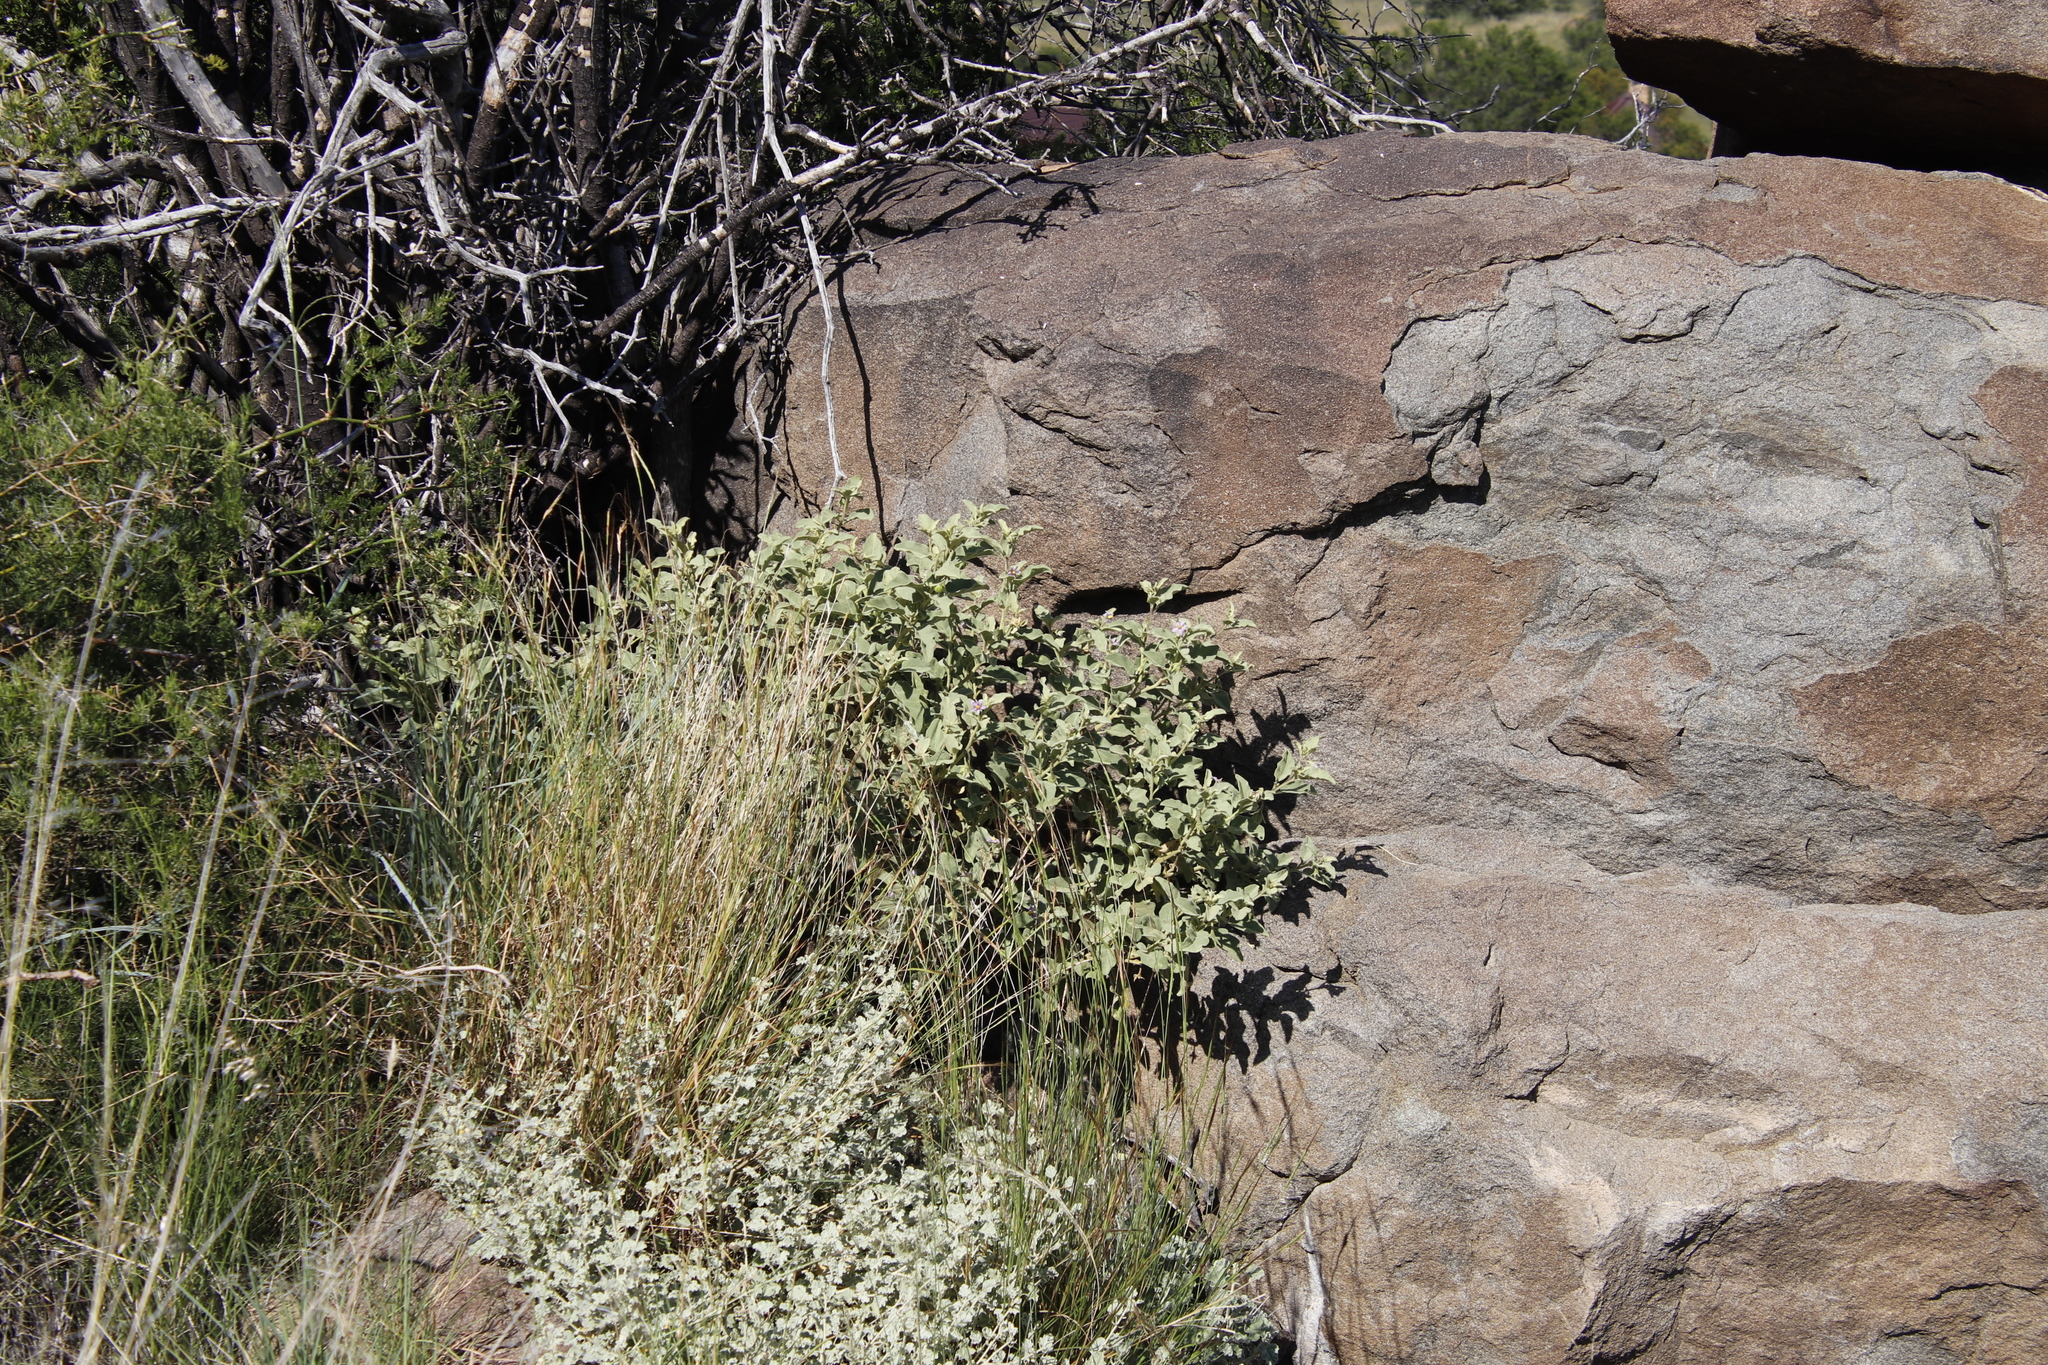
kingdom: Plantae
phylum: Tracheophyta
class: Magnoliopsida
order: Solanales
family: Solanaceae
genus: Solanum
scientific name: Solanum tomentosum
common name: Wild aubergine
